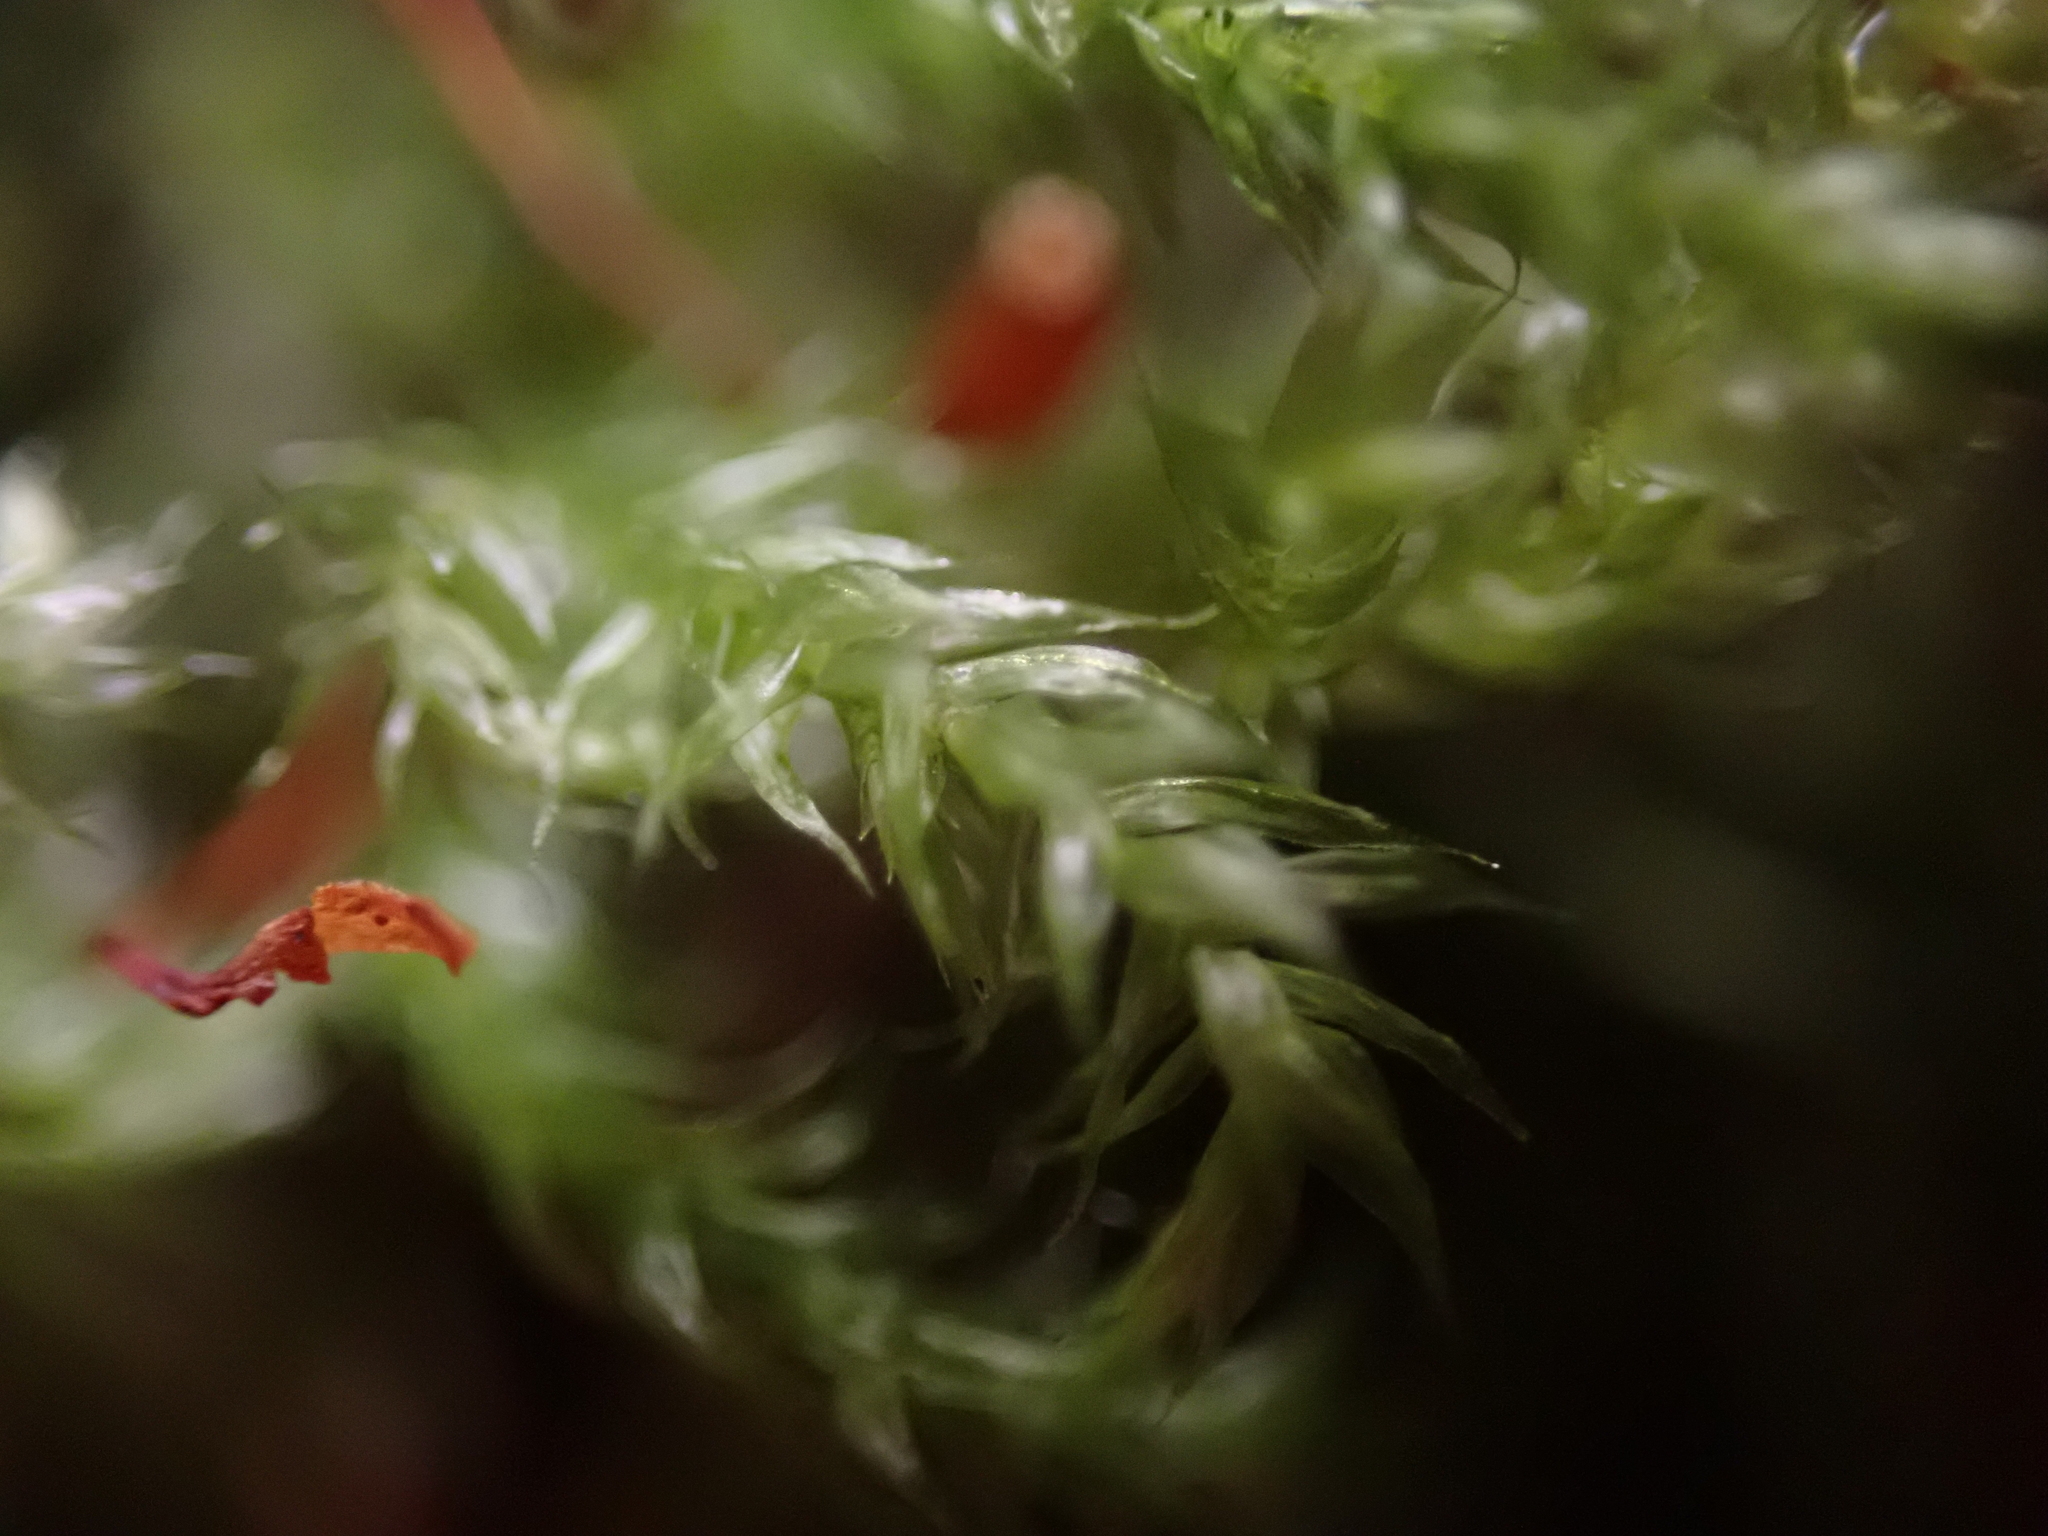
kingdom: Plantae
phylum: Bryophyta
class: Bryopsida
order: Hypnales
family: Lembophyllaceae
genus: Pseudisothecium
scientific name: Pseudisothecium stoloniferum
